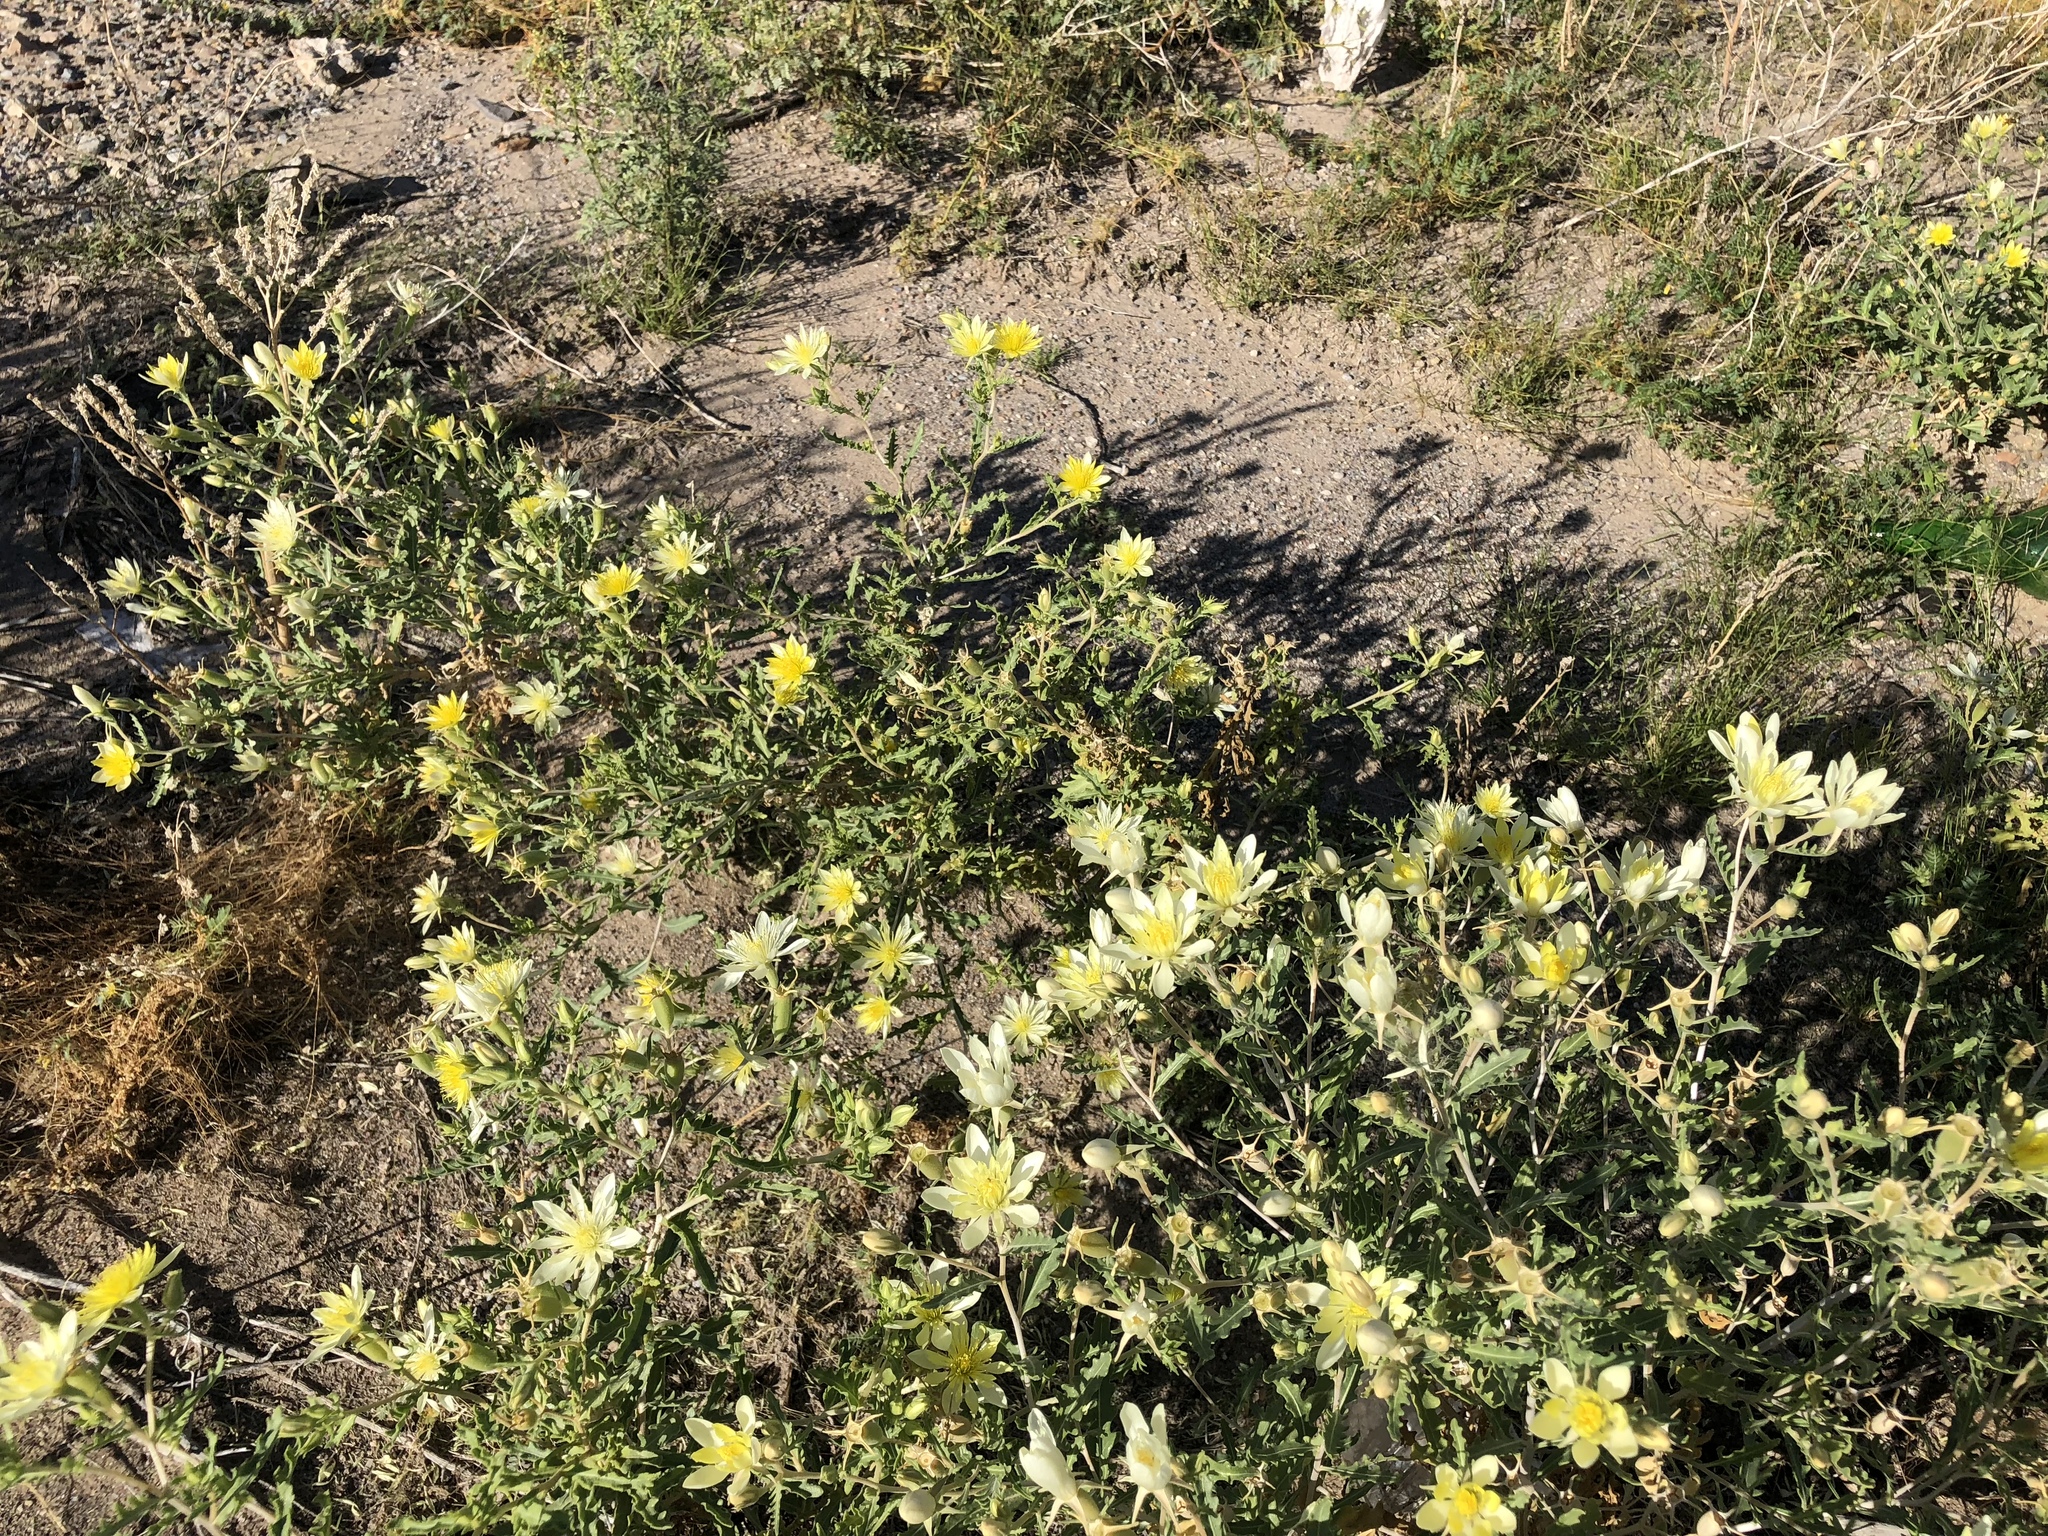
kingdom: Plantae
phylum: Tracheophyta
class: Magnoliopsida
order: Cornales
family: Loasaceae
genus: Mentzelia
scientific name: Mentzelia longiloba
